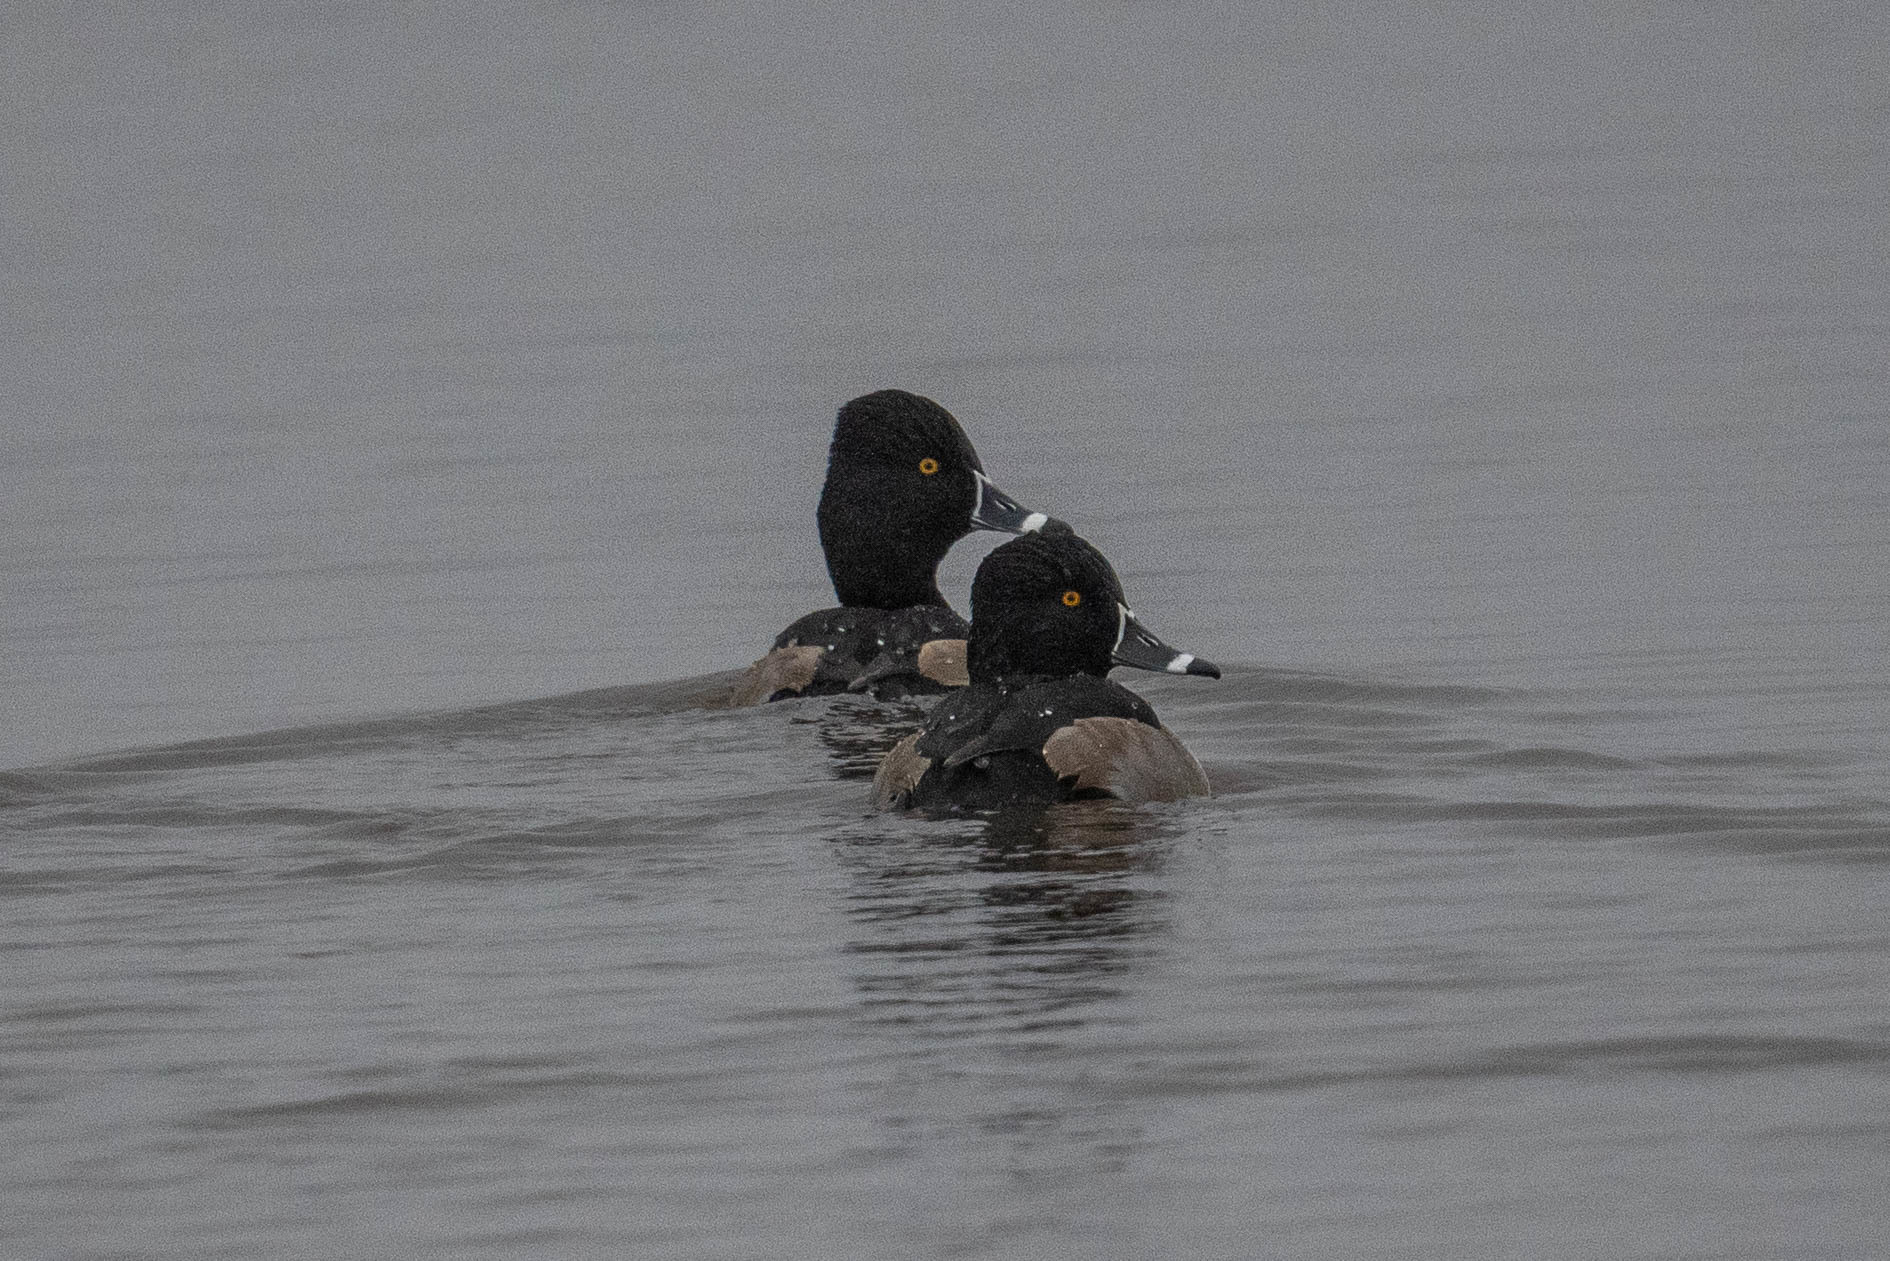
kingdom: Animalia
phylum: Chordata
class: Aves
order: Anseriformes
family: Anatidae
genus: Aythya
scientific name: Aythya collaris
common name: Ring-necked duck
